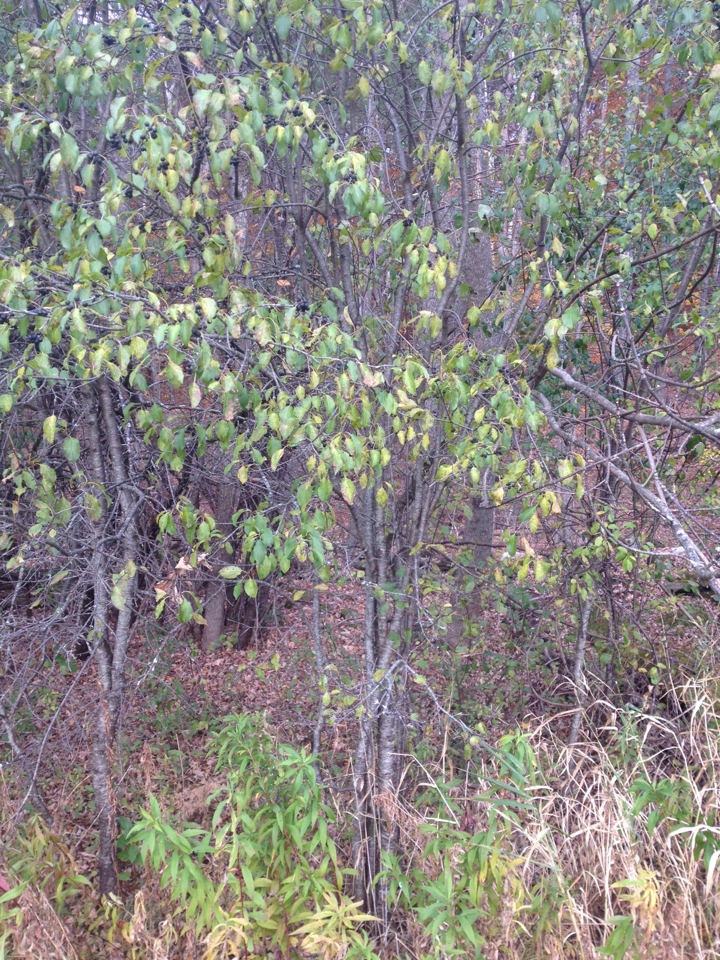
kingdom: Plantae
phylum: Tracheophyta
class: Magnoliopsida
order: Rosales
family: Rhamnaceae
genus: Rhamnus
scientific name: Rhamnus cathartica
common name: Common buckthorn
